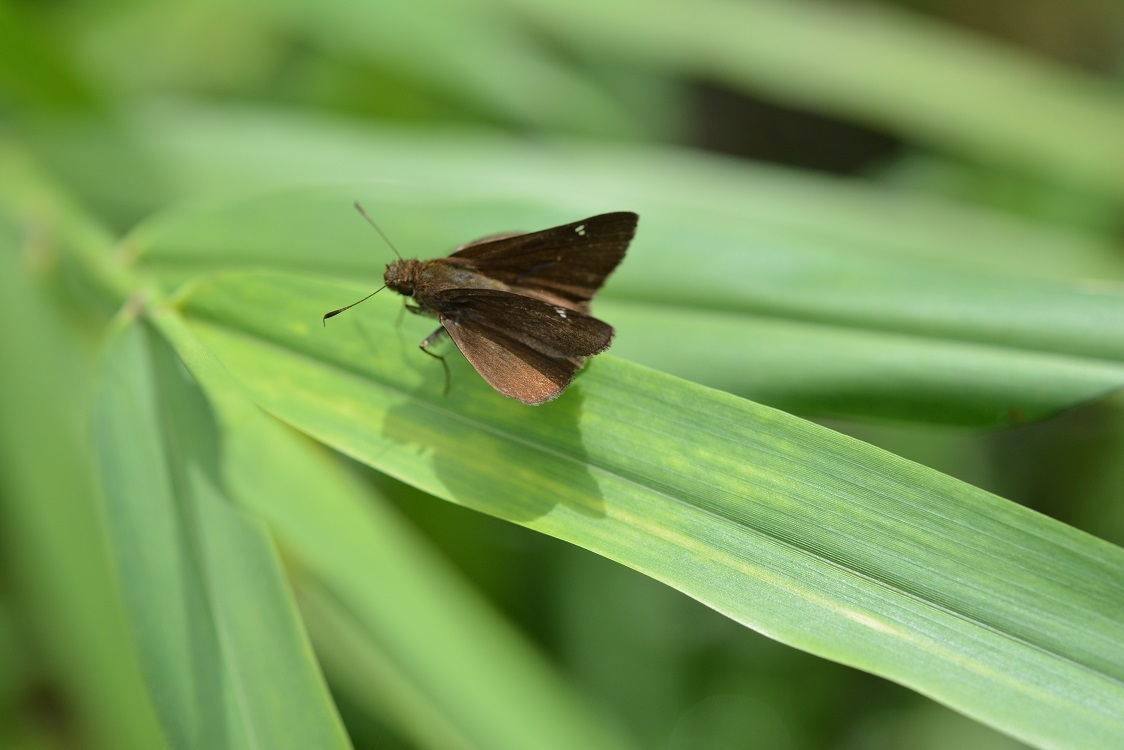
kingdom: Animalia
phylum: Arthropoda
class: Insecta
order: Lepidoptera
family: Hesperiidae
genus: Lerema
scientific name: Lerema accius
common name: Clouded skipper
